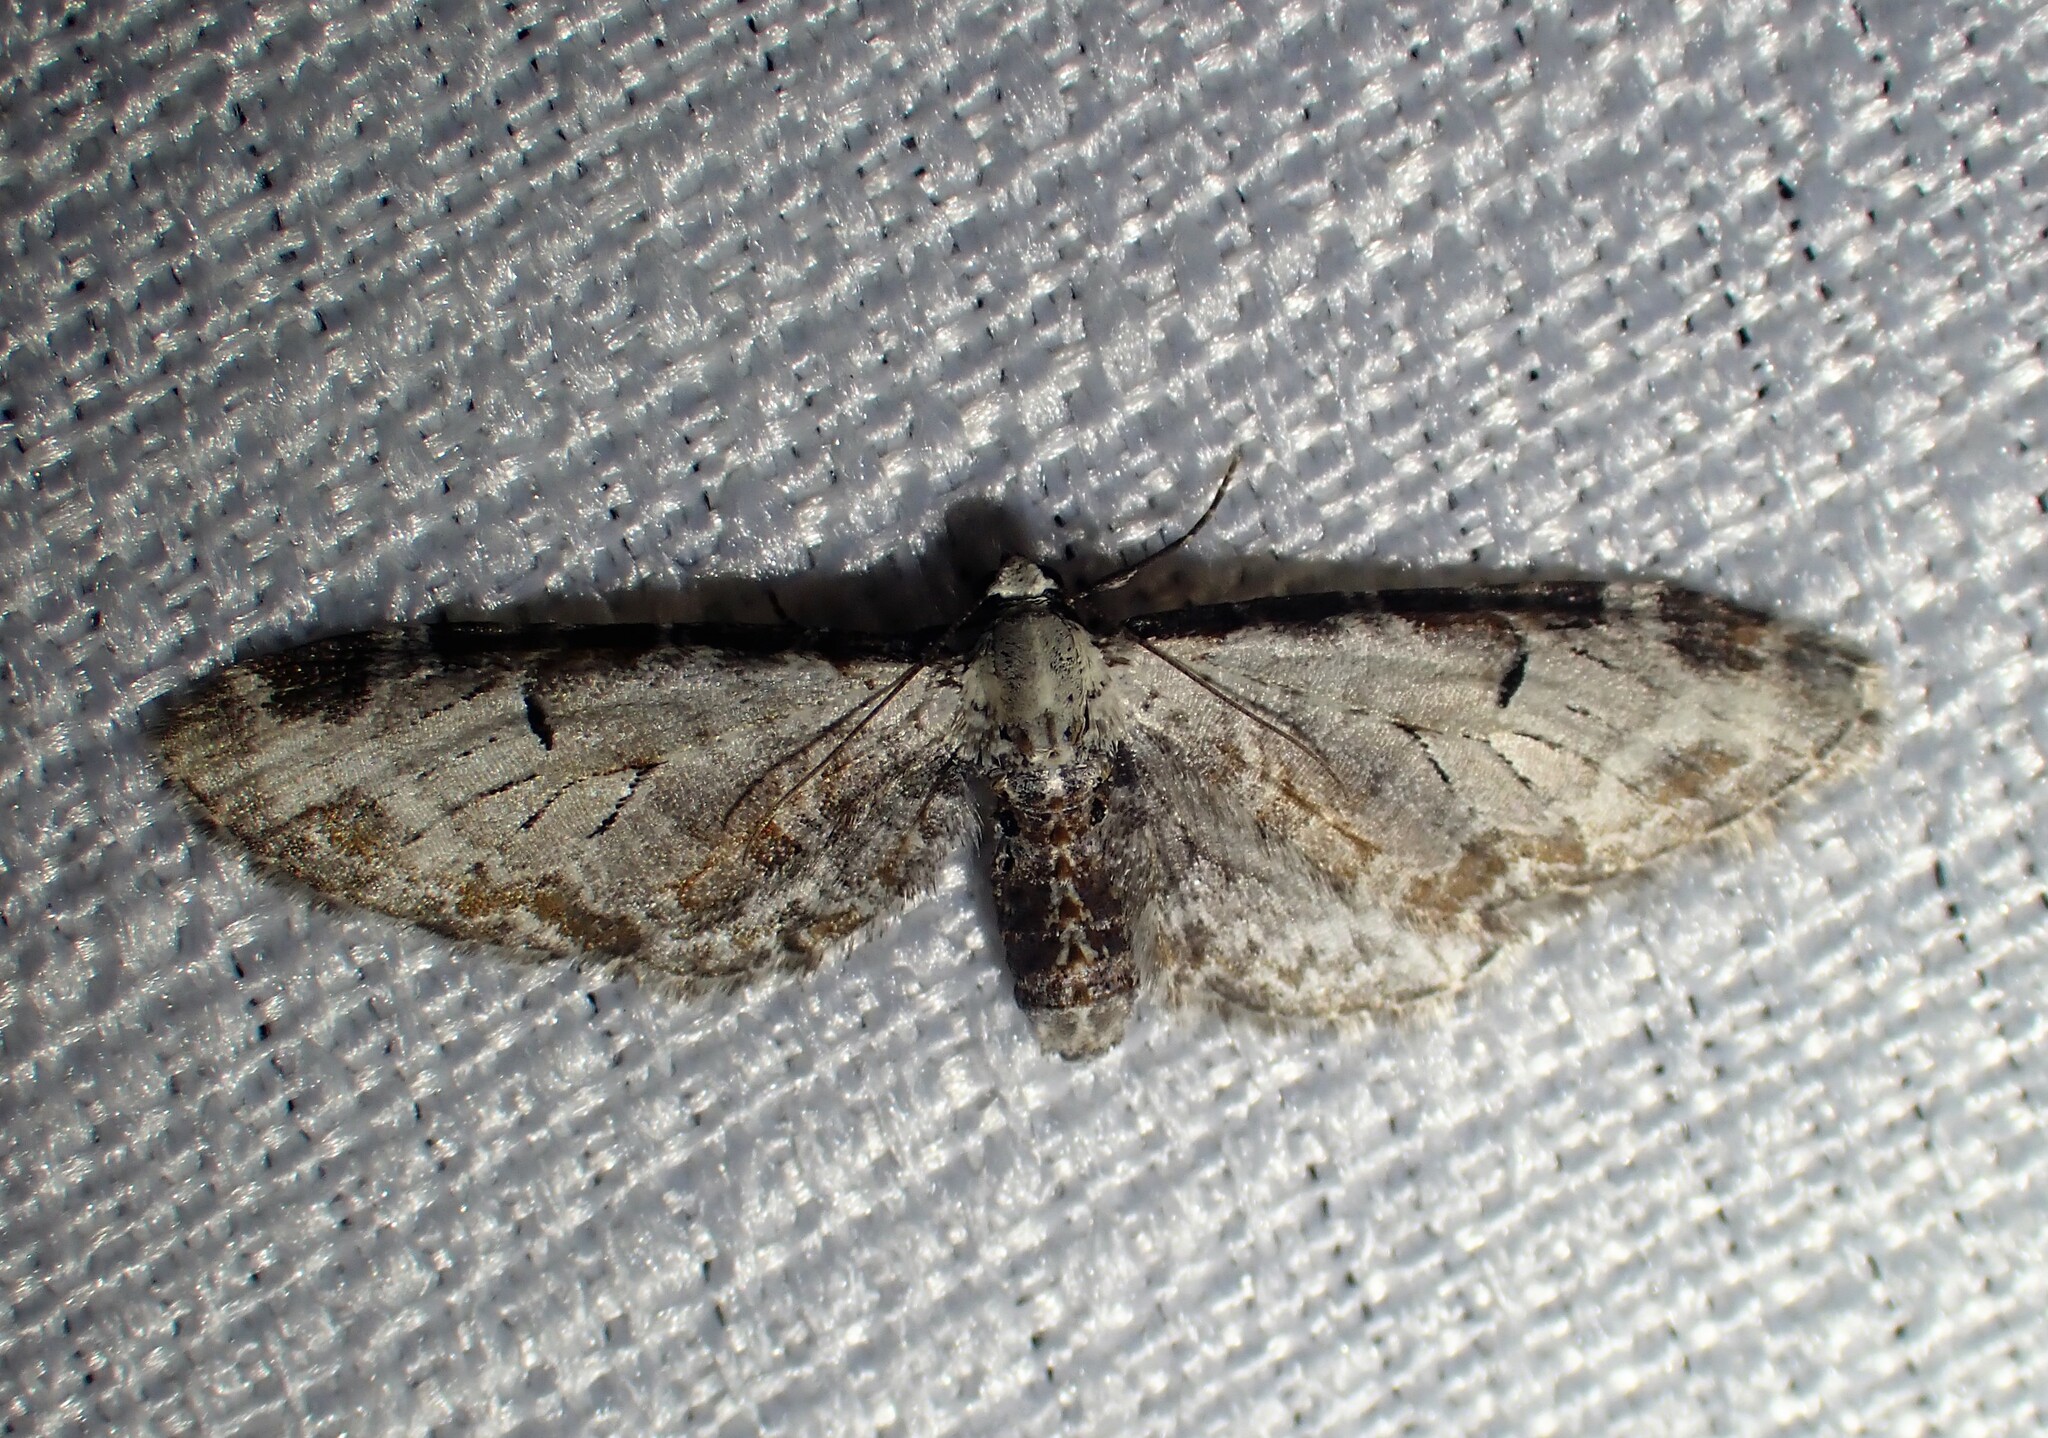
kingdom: Animalia
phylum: Arthropoda
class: Insecta
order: Lepidoptera
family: Geometridae
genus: Eupithecia
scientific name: Eupithecia ravocostaliata
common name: Great varigated pug
